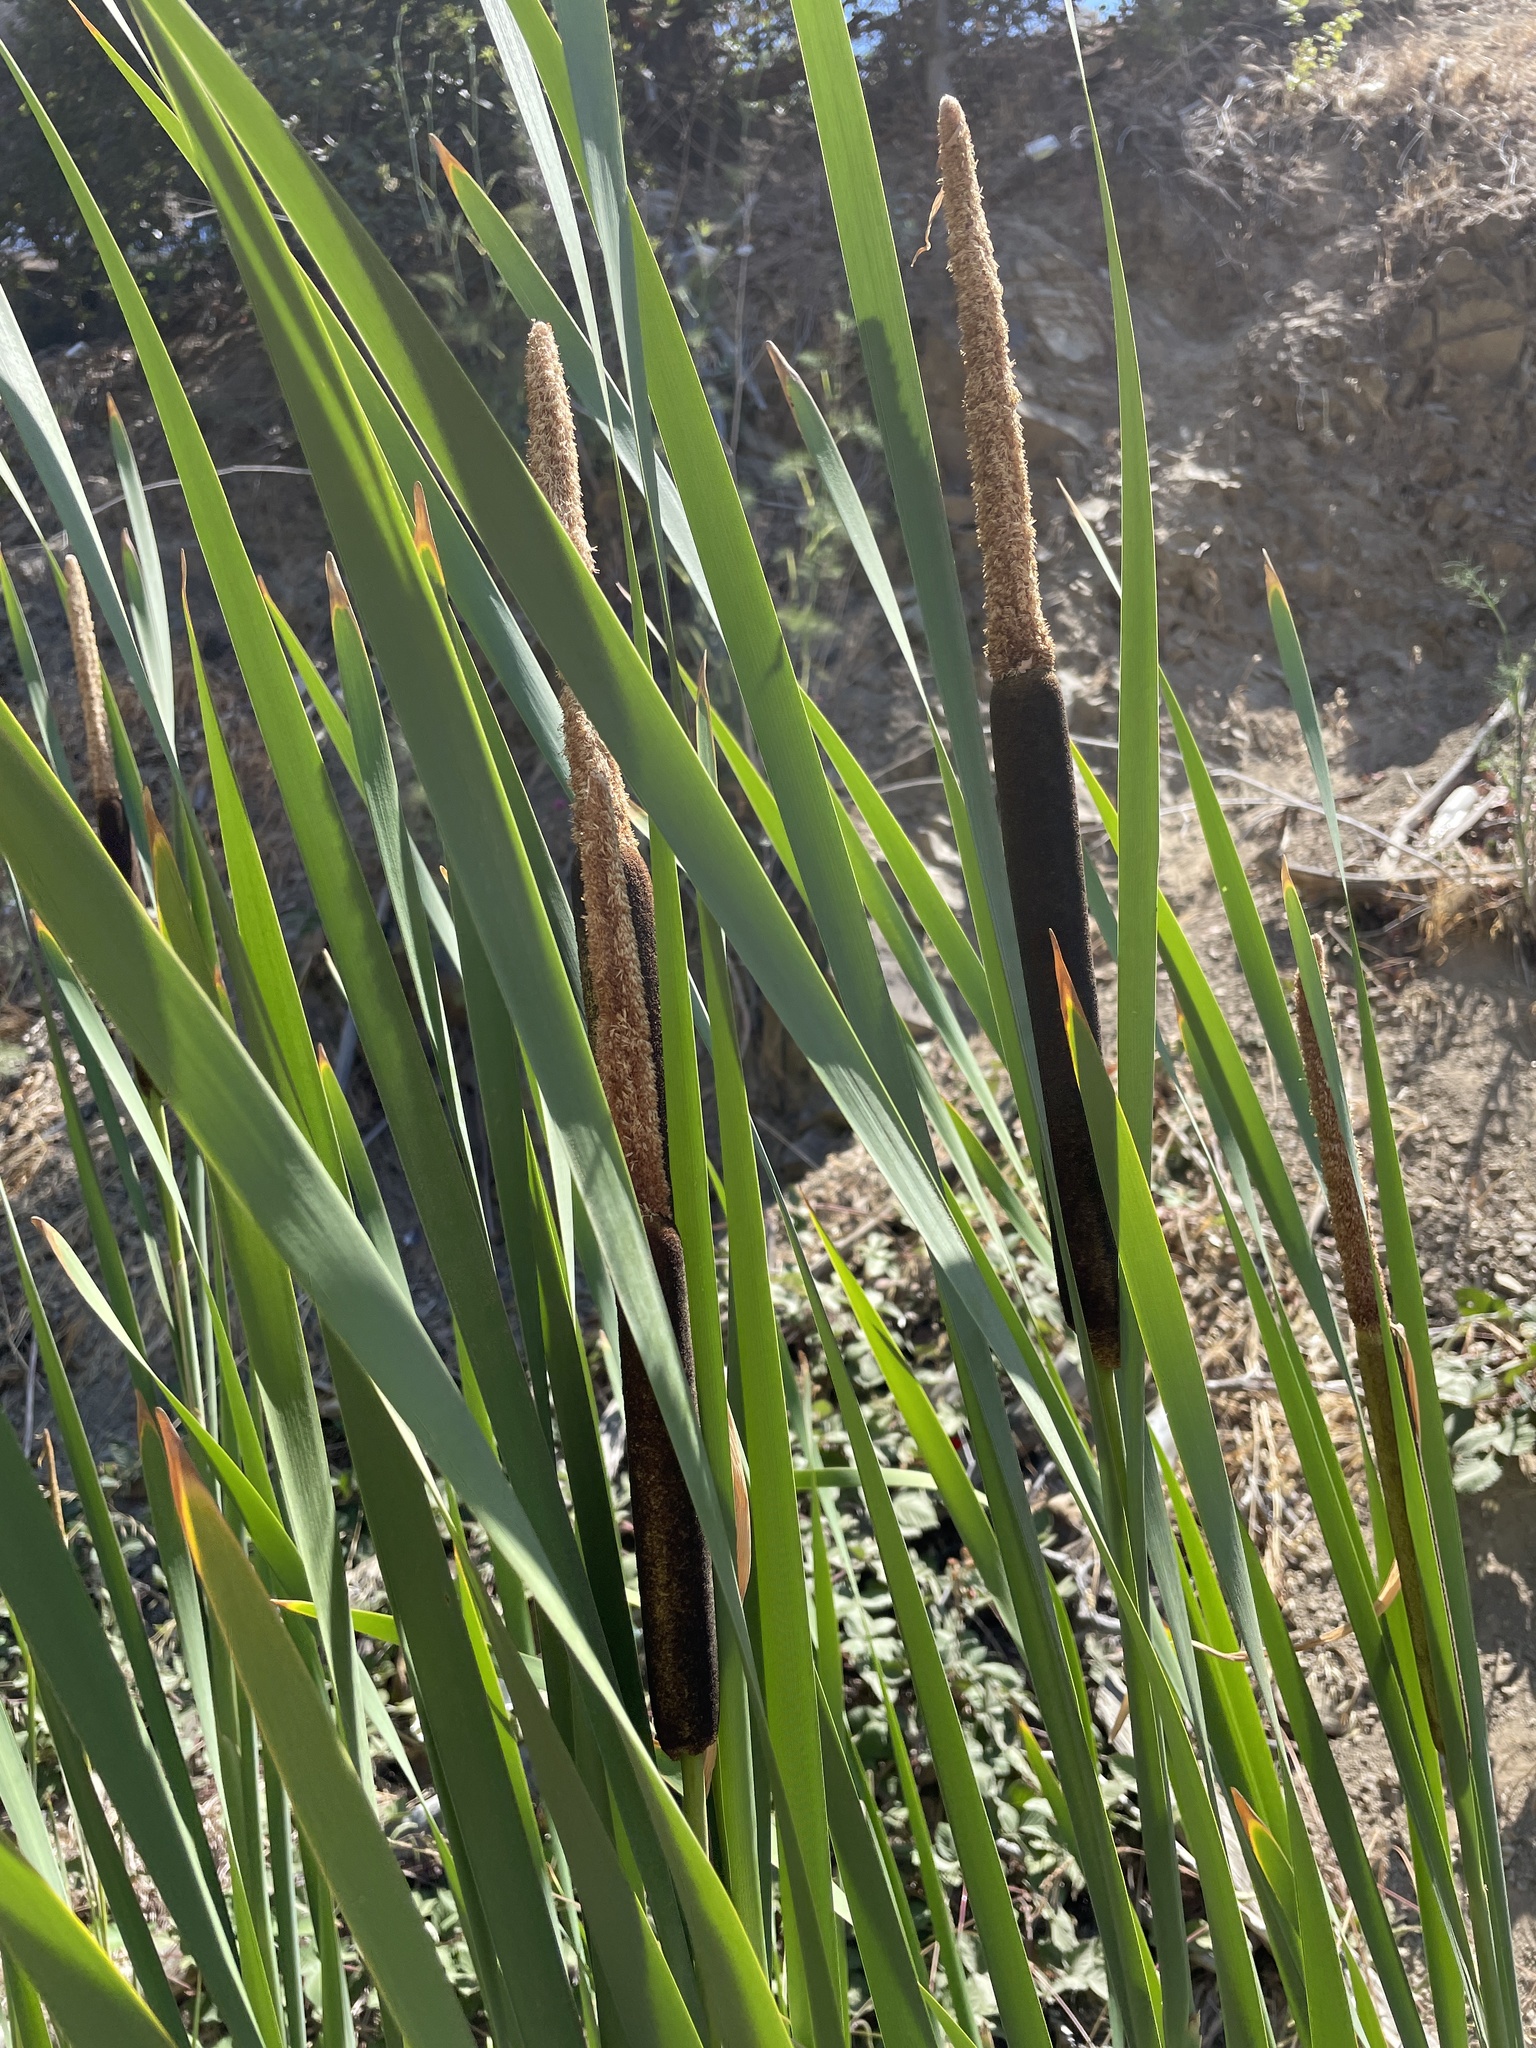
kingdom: Plantae
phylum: Tracheophyta
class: Liliopsida
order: Poales
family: Typhaceae
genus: Typha
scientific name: Typha latifolia
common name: Broadleaf cattail
